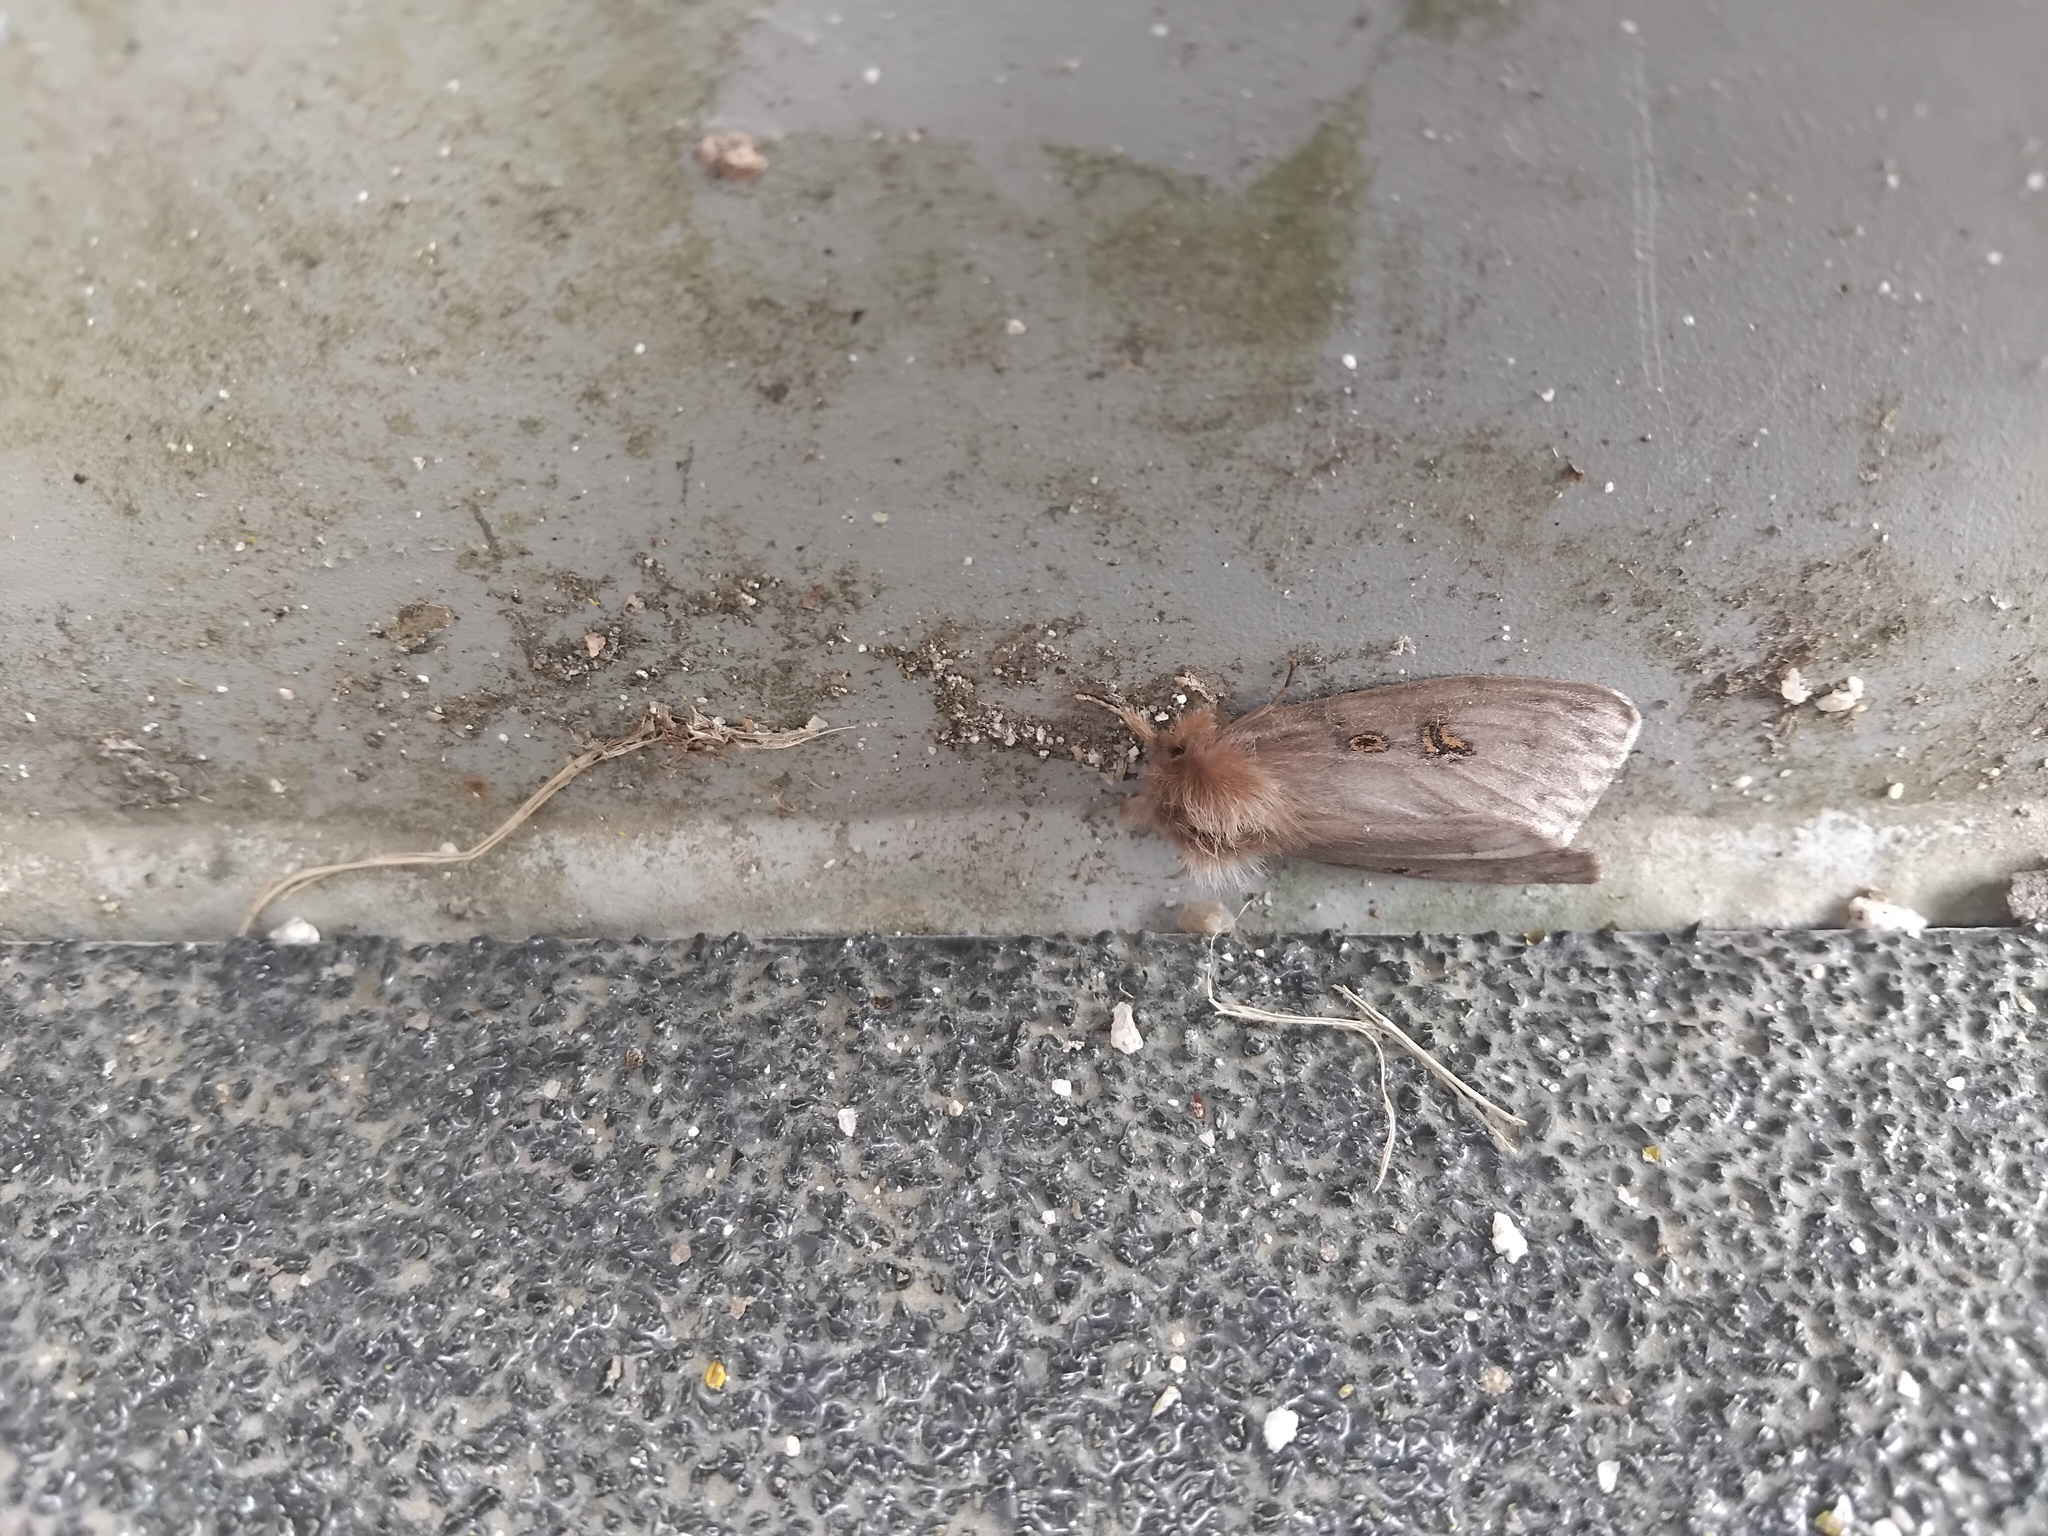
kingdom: Animalia
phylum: Arthropoda
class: Insecta
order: Lepidoptera
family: Erebidae
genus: Leptocneria
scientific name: Leptocneria reducta
